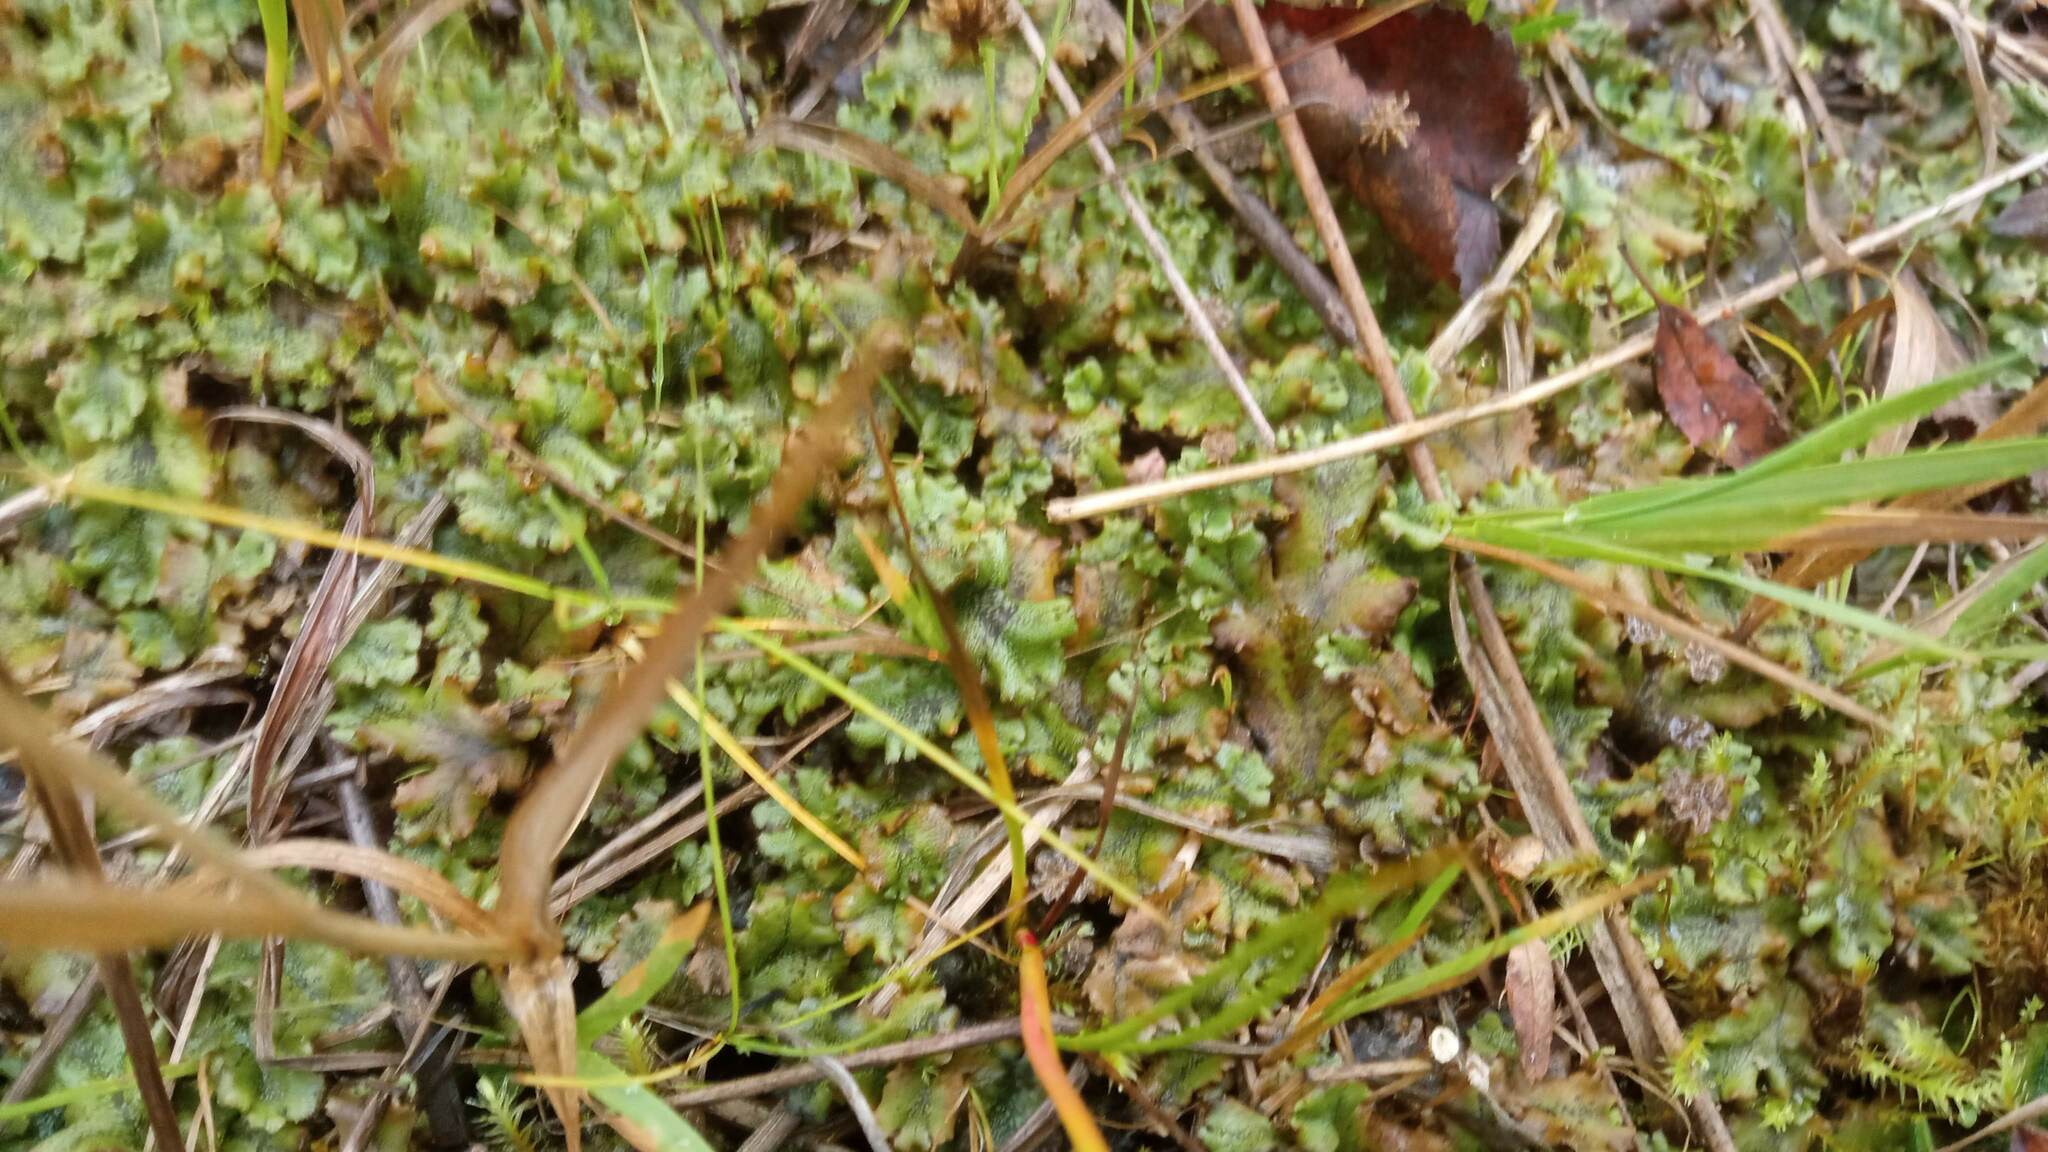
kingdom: Plantae
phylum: Marchantiophyta
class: Marchantiopsida
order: Marchantiales
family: Marchantiaceae
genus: Marchantia
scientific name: Marchantia polymorpha
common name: Common liverwort
